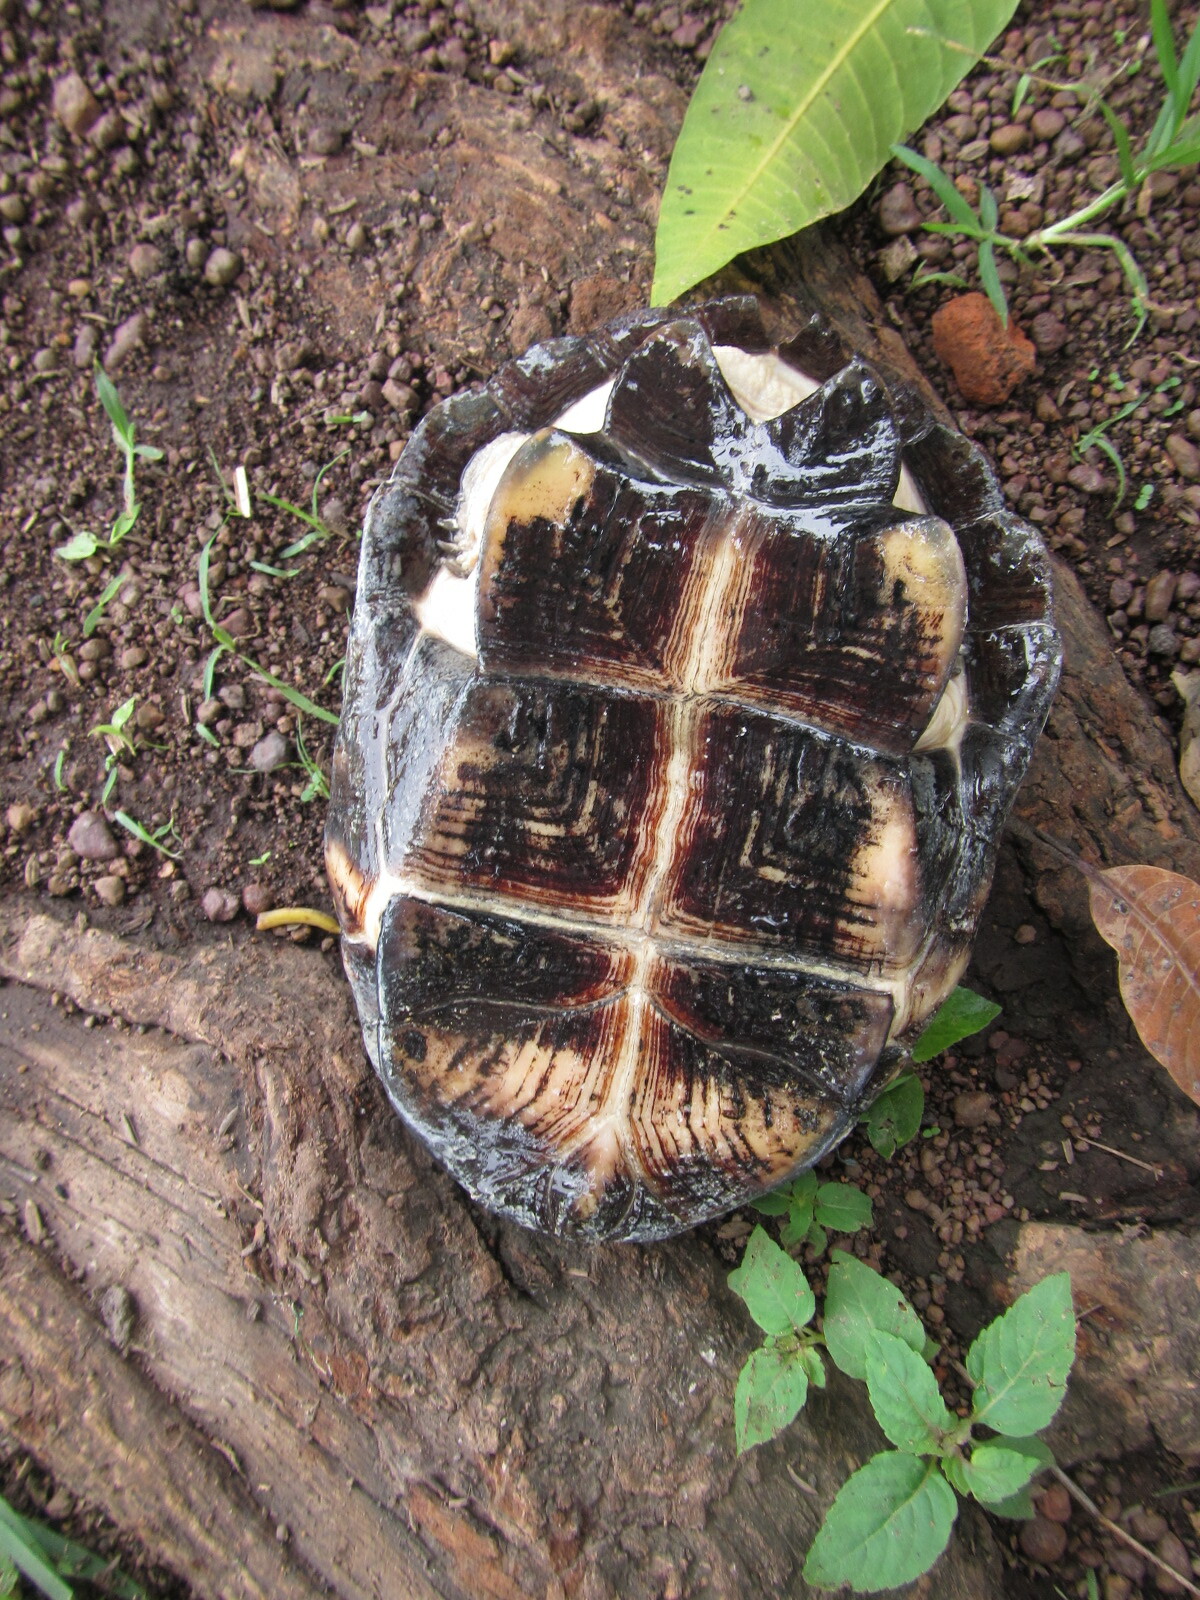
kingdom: Animalia
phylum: Chordata
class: Testudines
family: Pelomedusidae
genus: Pelusios
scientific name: Pelusios castaneus
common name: West african mud turtle
